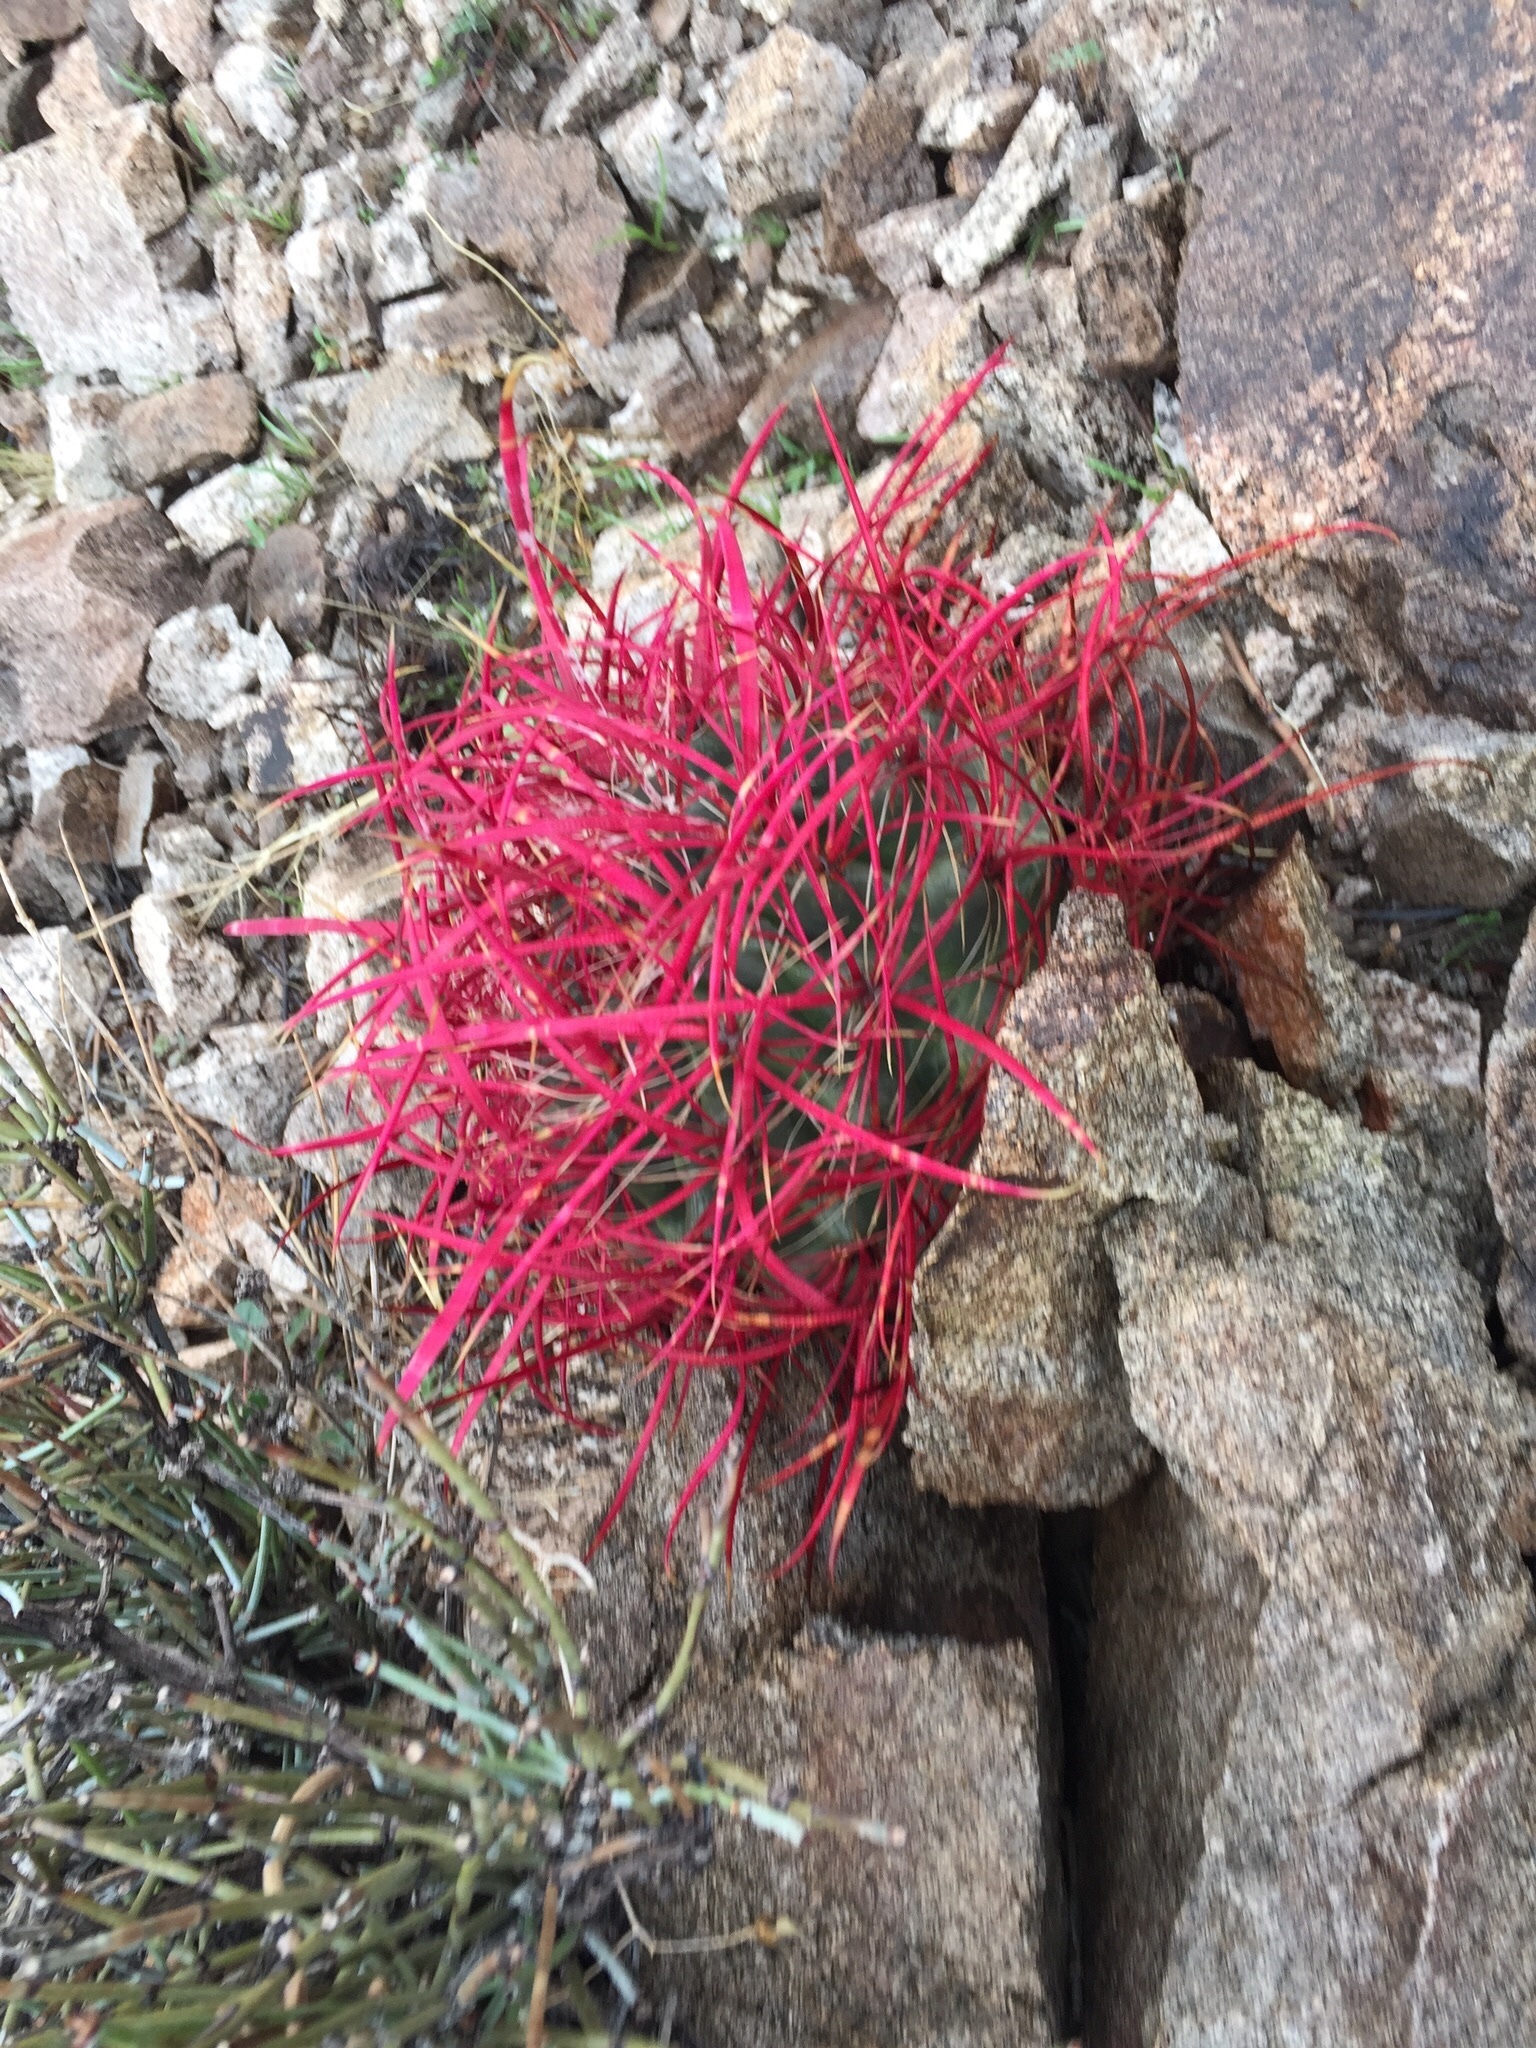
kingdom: Plantae
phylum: Tracheophyta
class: Magnoliopsida
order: Caryophyllales
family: Cactaceae
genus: Ferocactus
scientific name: Ferocactus cylindraceus
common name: California barrel cactus
